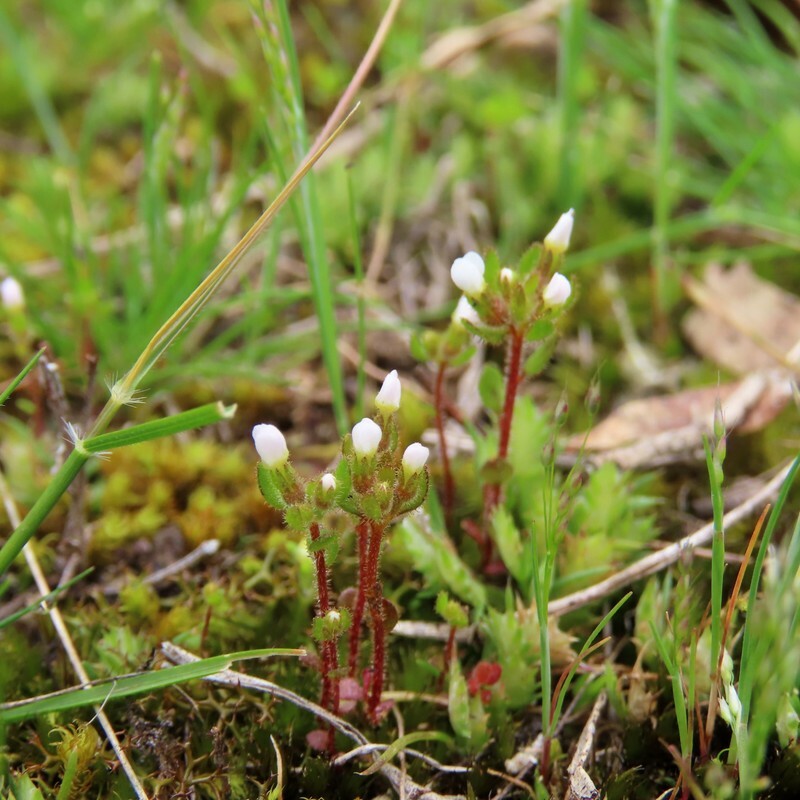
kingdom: Plantae
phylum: Tracheophyta
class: Magnoliopsida
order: Asterales
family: Stylidiaceae
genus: Levenhookia
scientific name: Levenhookia dubia
